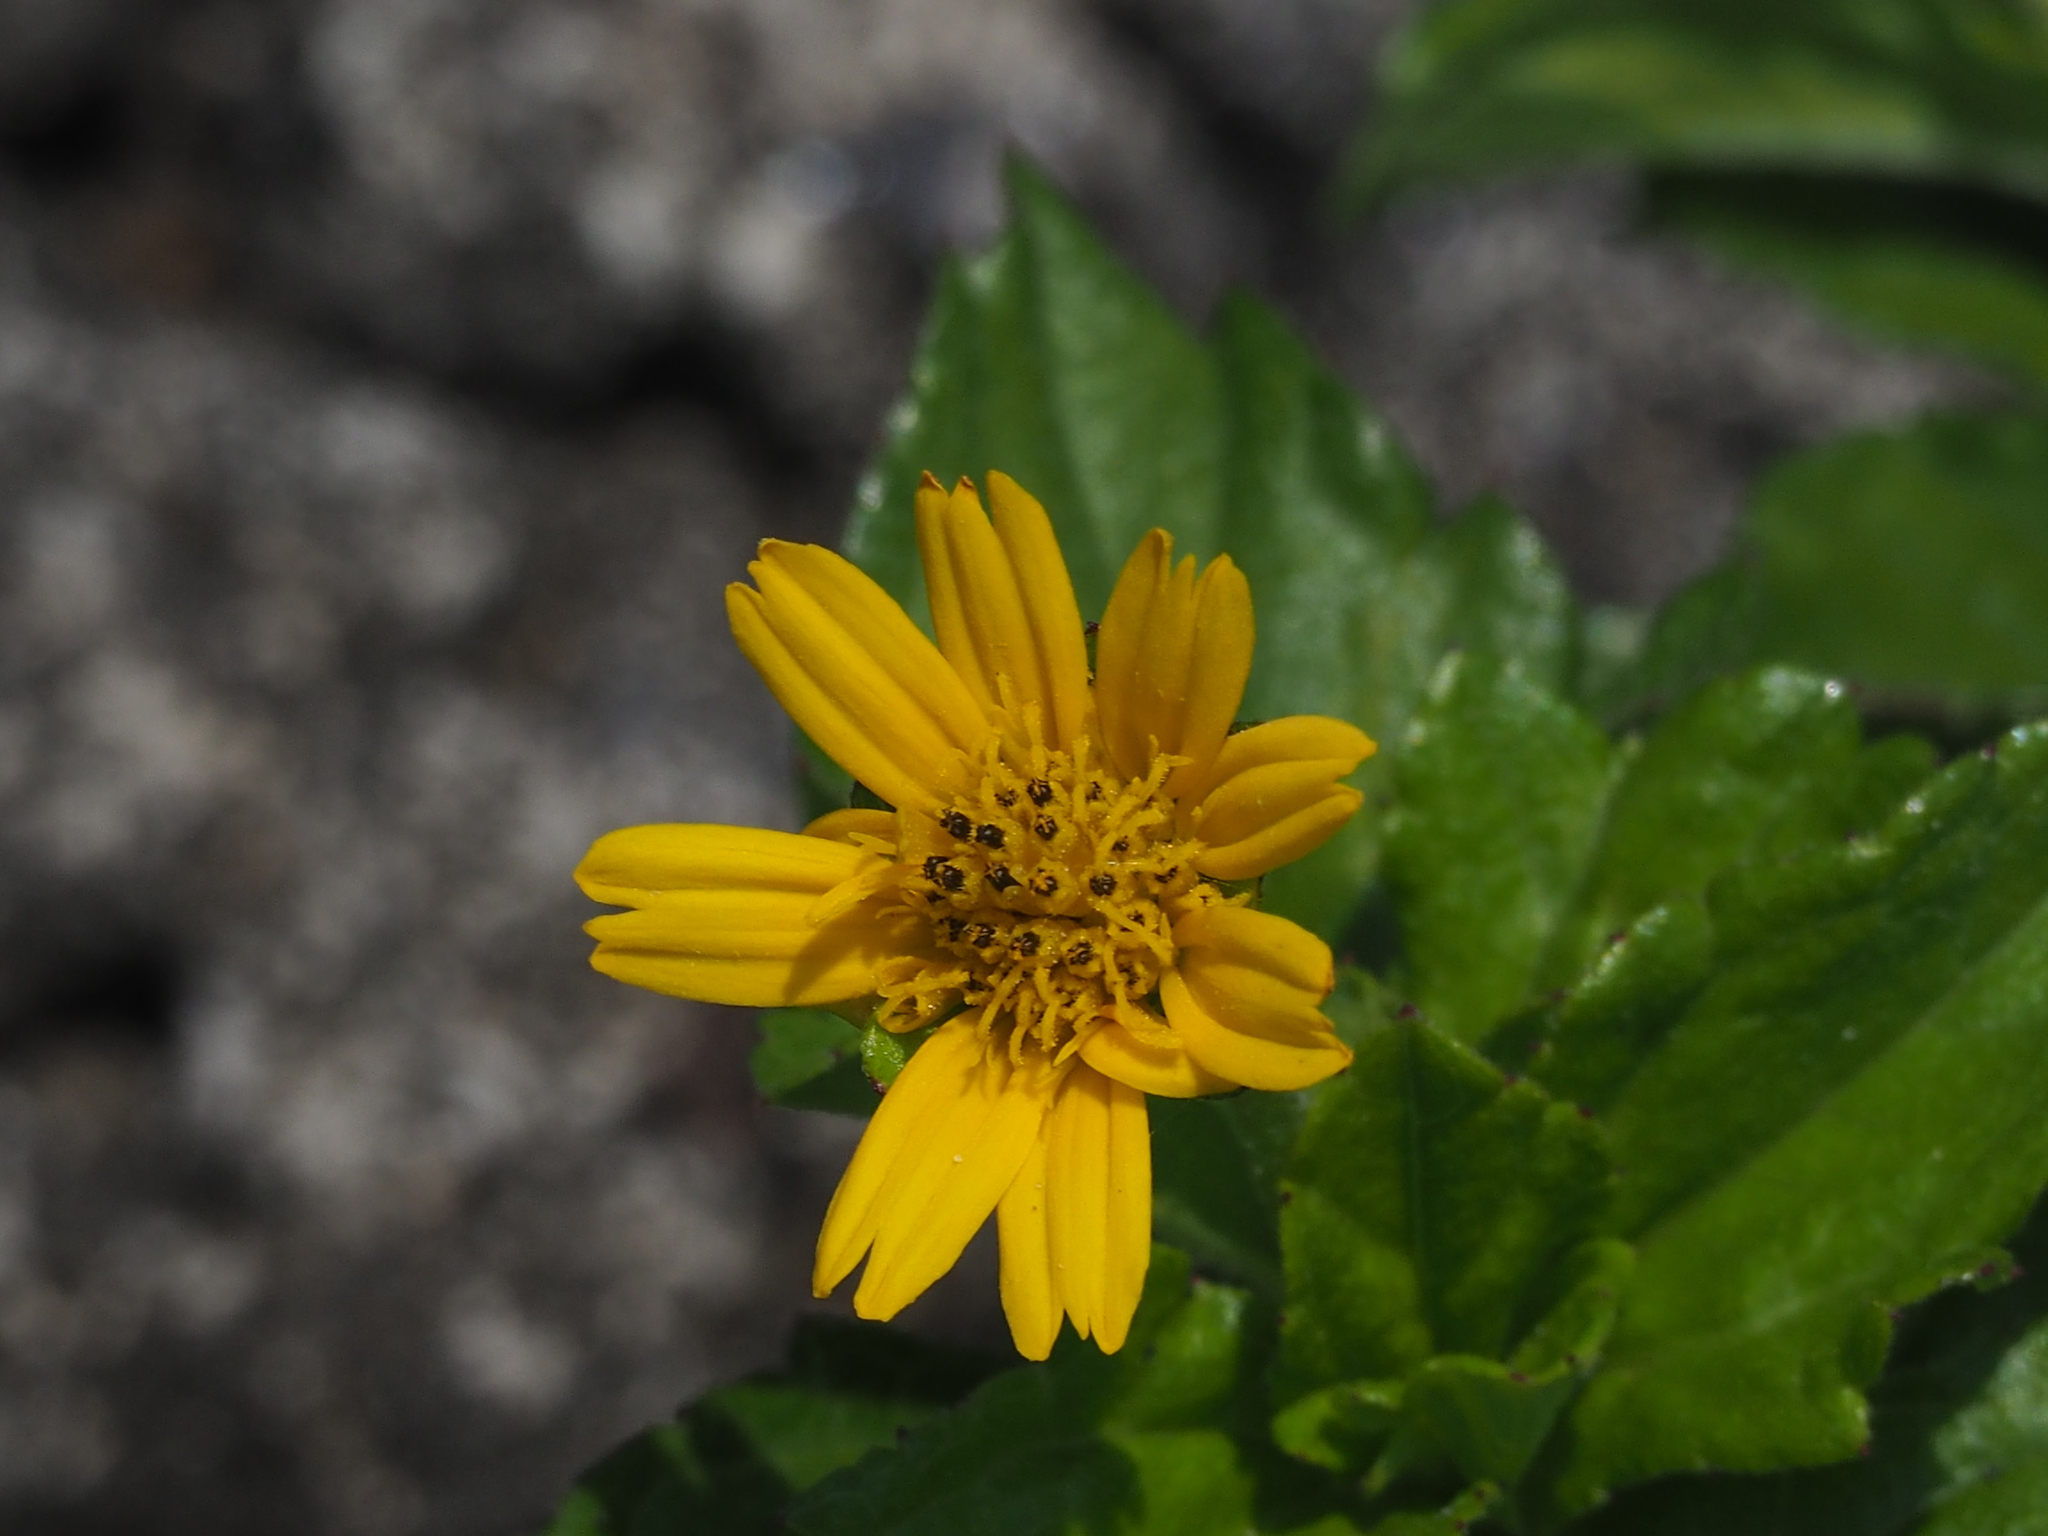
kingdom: Plantae
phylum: Tracheophyta
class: Magnoliopsida
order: Asterales
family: Asteraceae
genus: Sphagneticola
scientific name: Sphagneticola trilobata
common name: Bay biscayne creeping-oxeye
